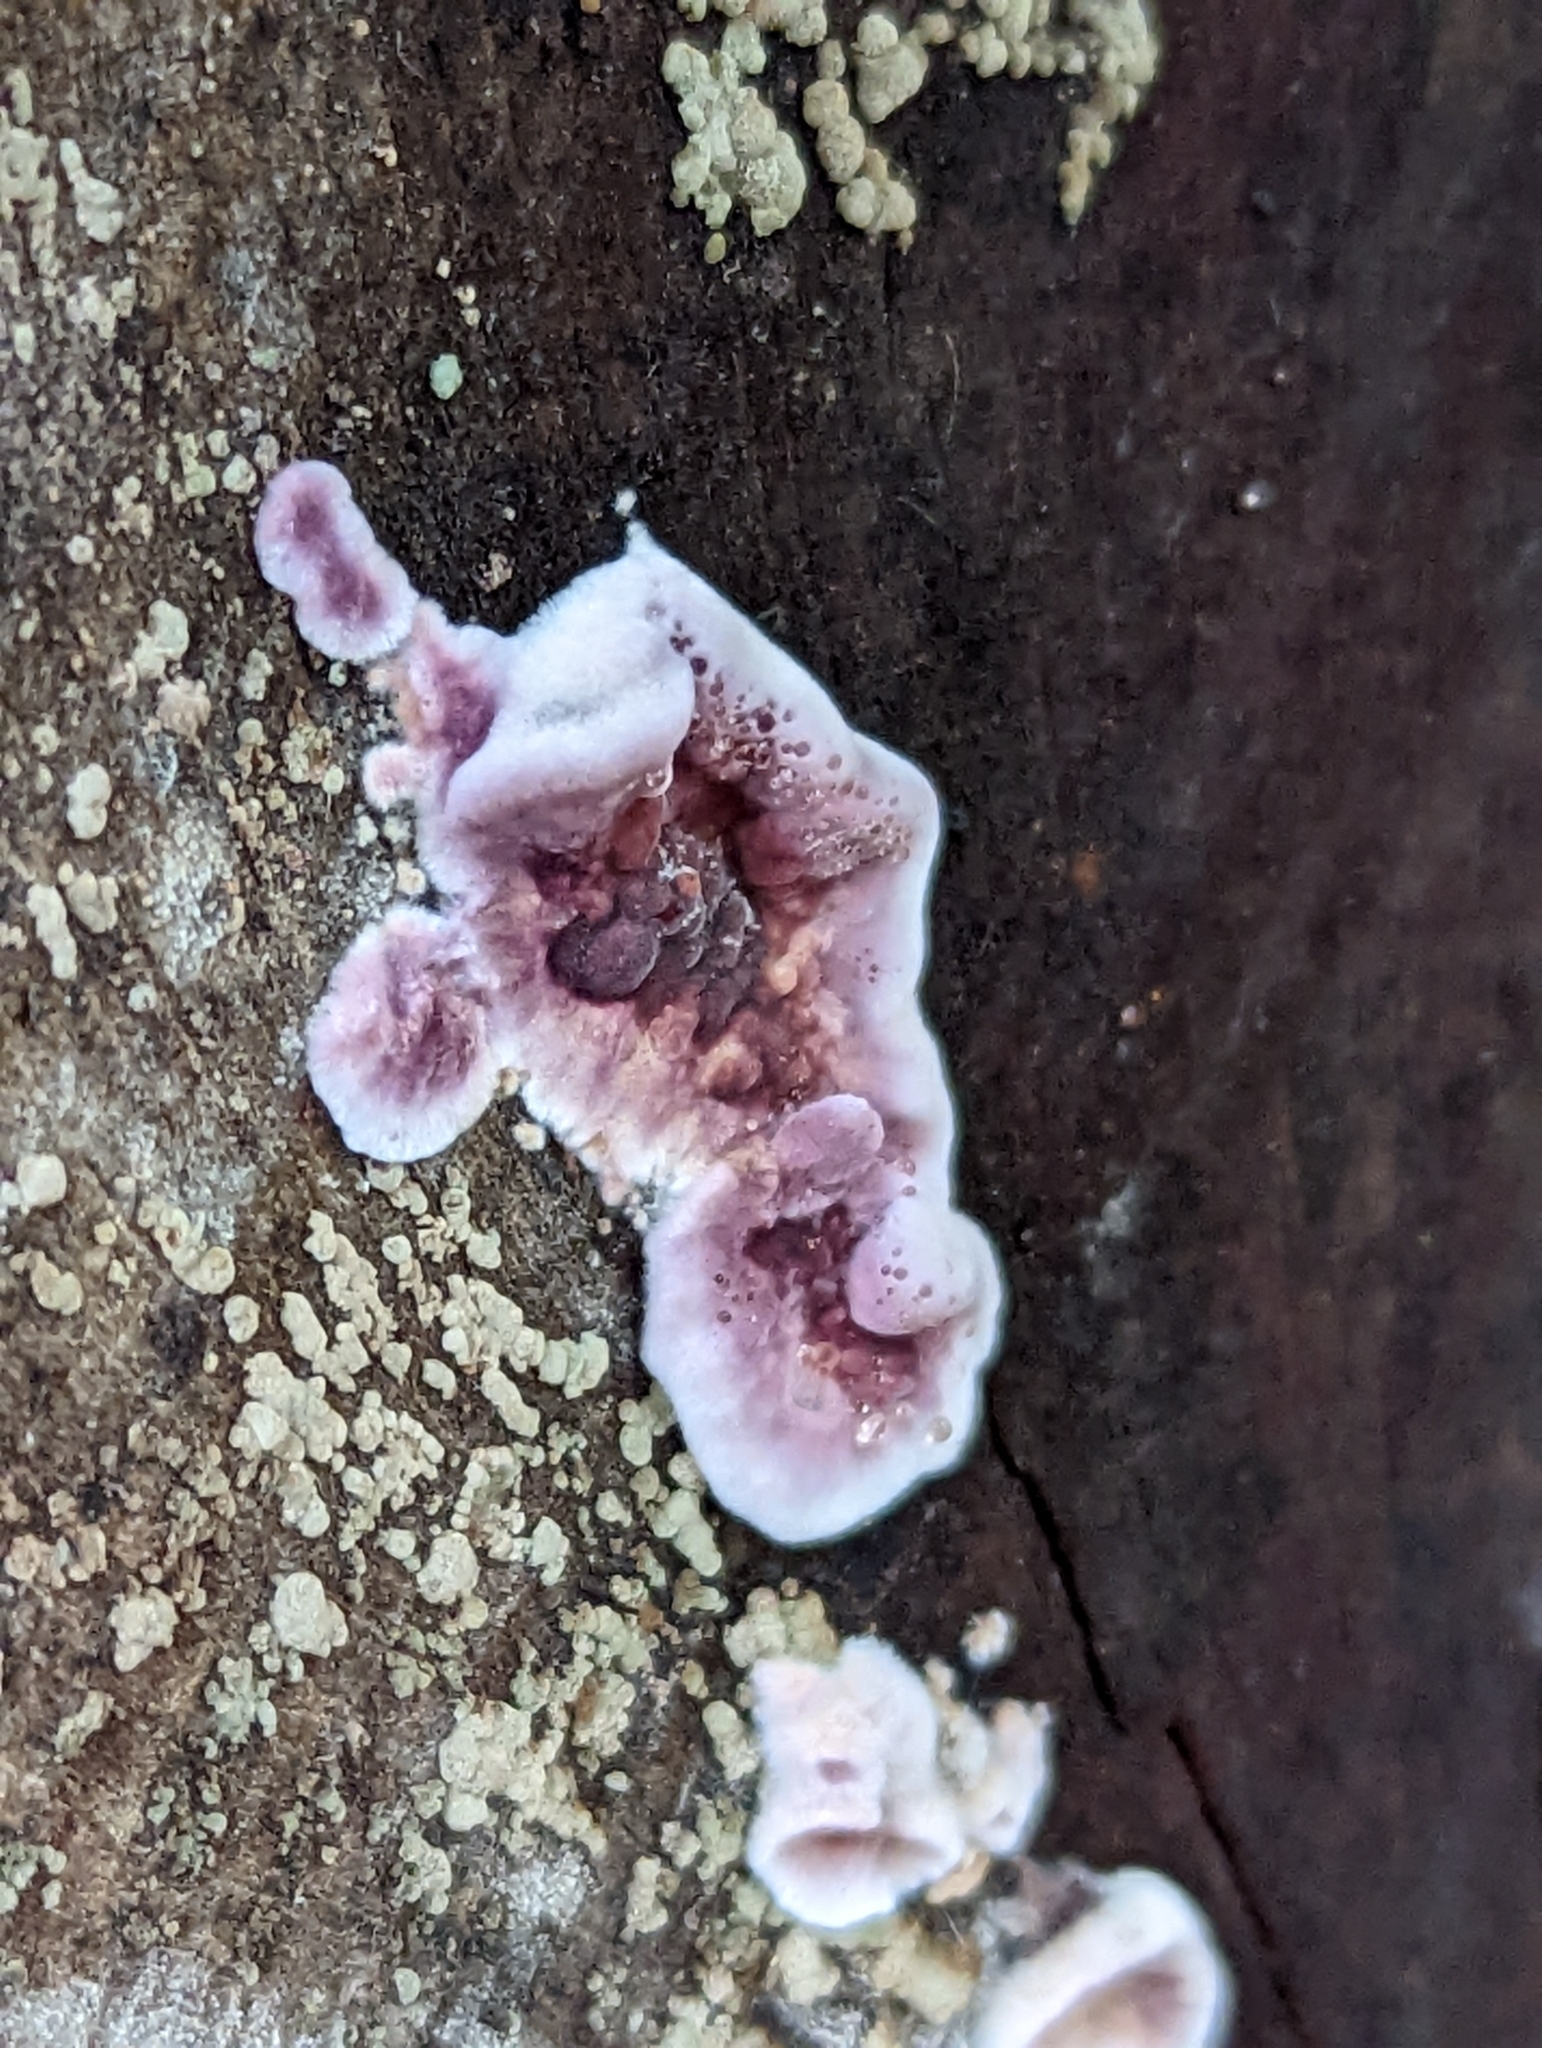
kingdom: Fungi
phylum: Basidiomycota
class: Agaricomycetes
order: Agaricales
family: Cyphellaceae
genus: Chondrostereum
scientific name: Chondrostereum purpureum
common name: Silver leaf disease
